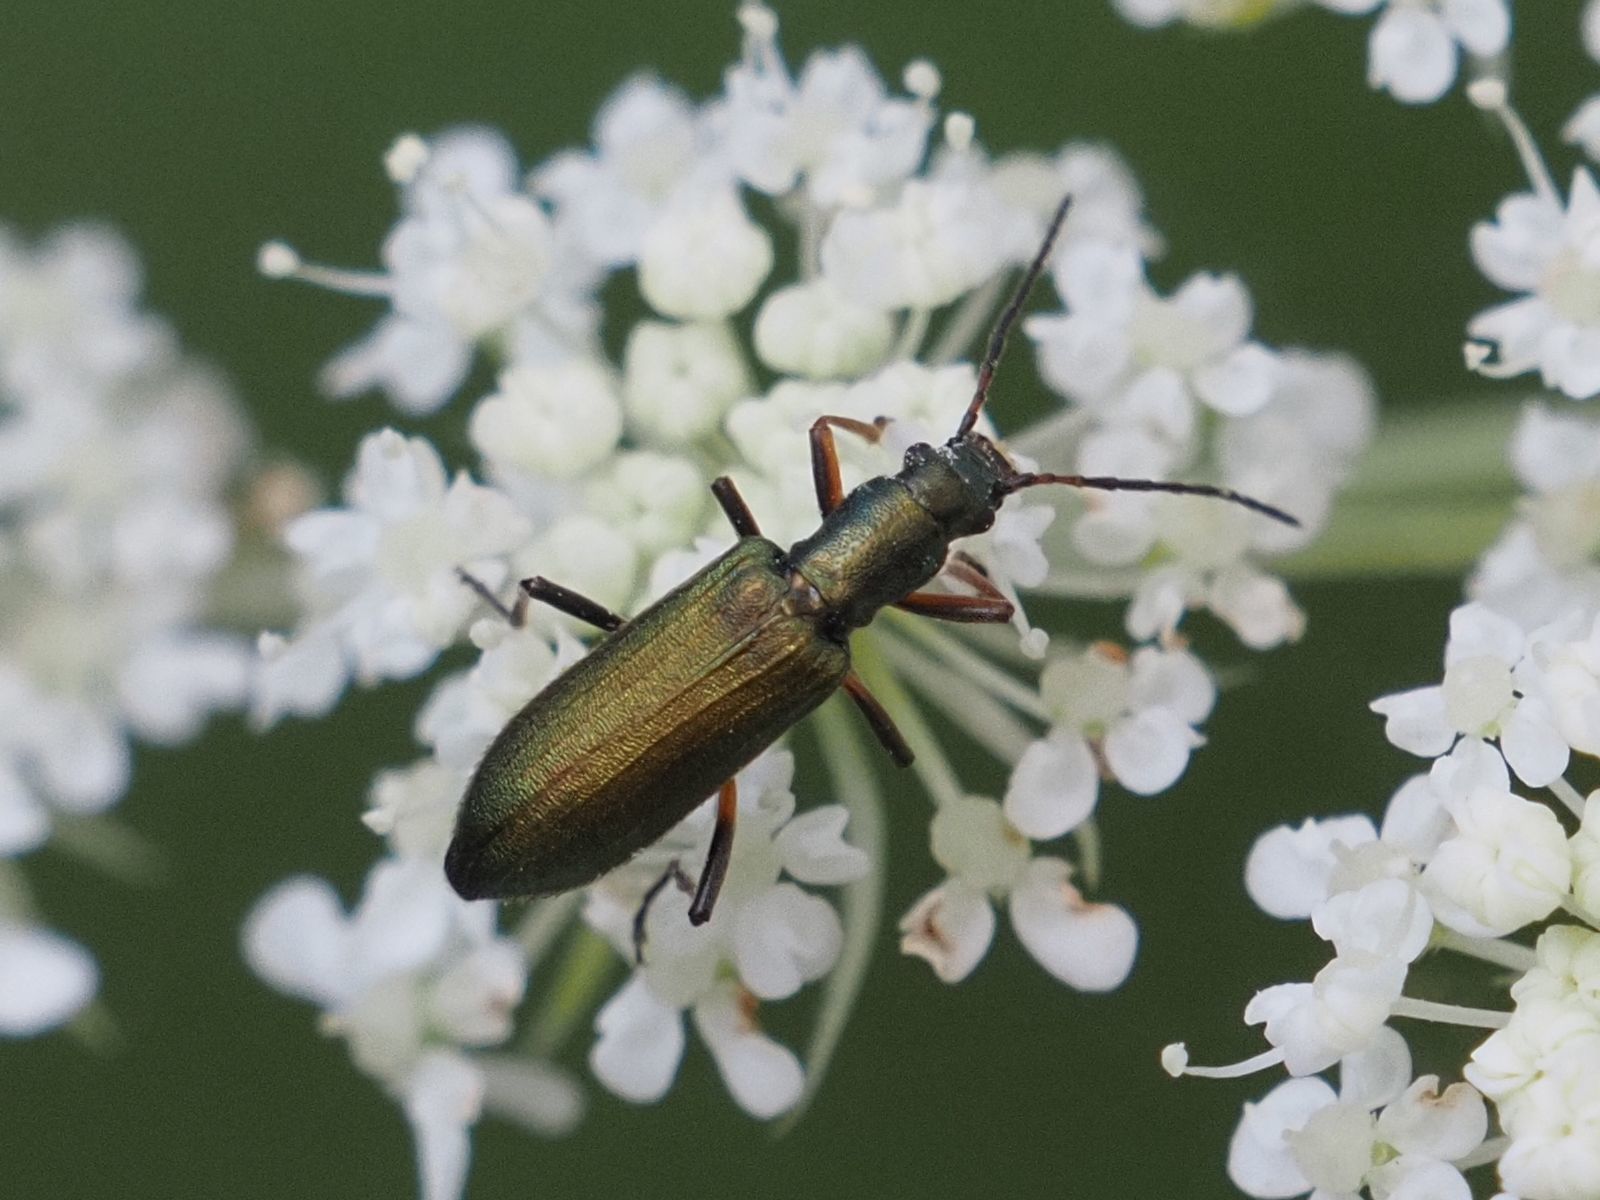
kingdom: Animalia
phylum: Arthropoda
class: Insecta
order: Coleoptera
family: Oedemeridae
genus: Chrysanthia
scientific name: Chrysanthia geniculata
